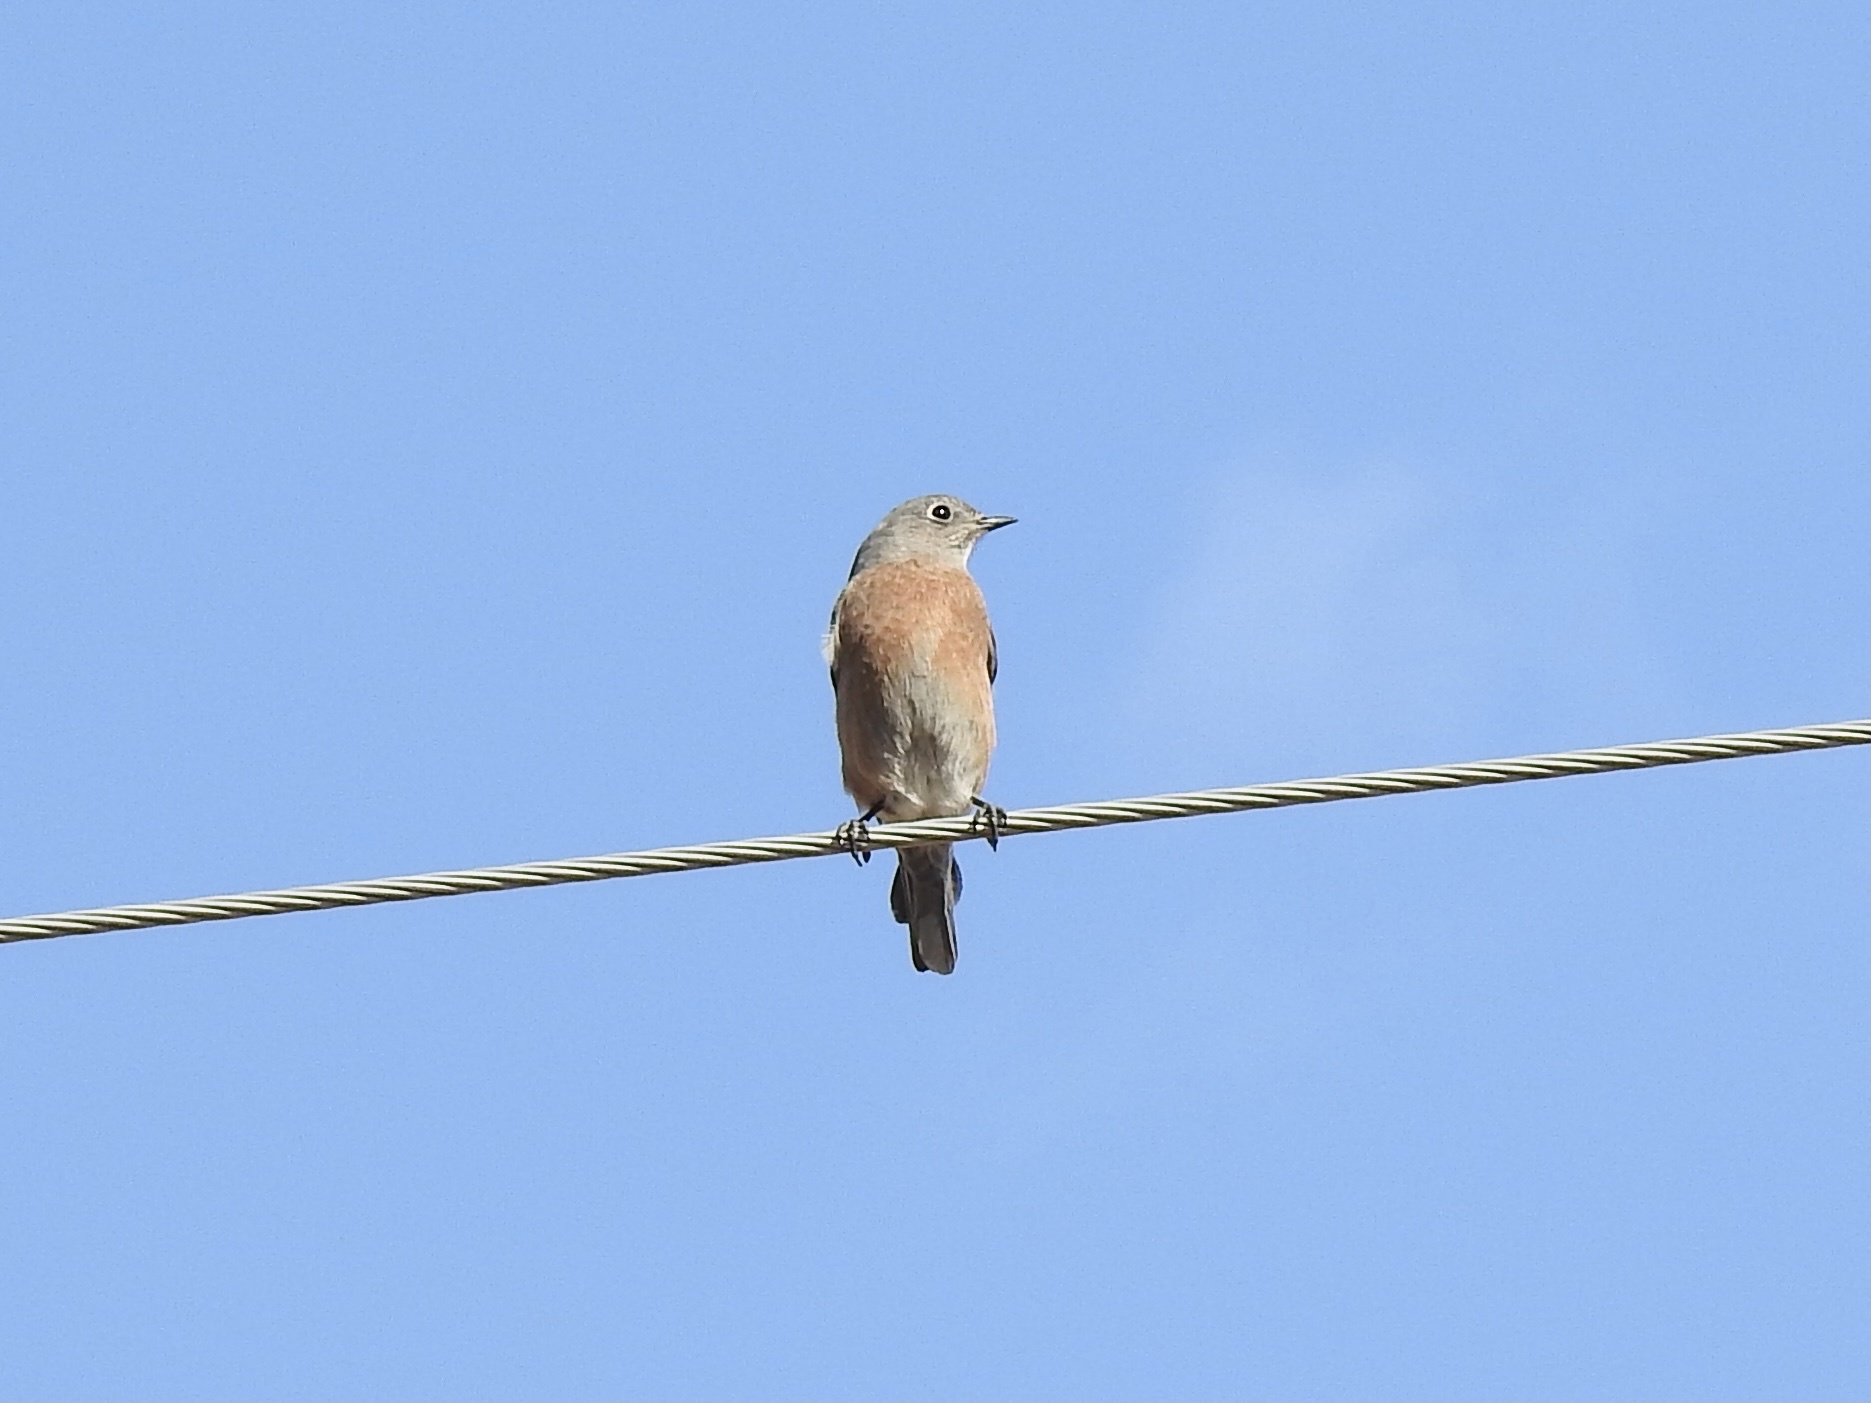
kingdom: Animalia
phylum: Chordata
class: Aves
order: Passeriformes
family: Turdidae
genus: Sialia
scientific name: Sialia mexicana
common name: Western bluebird
